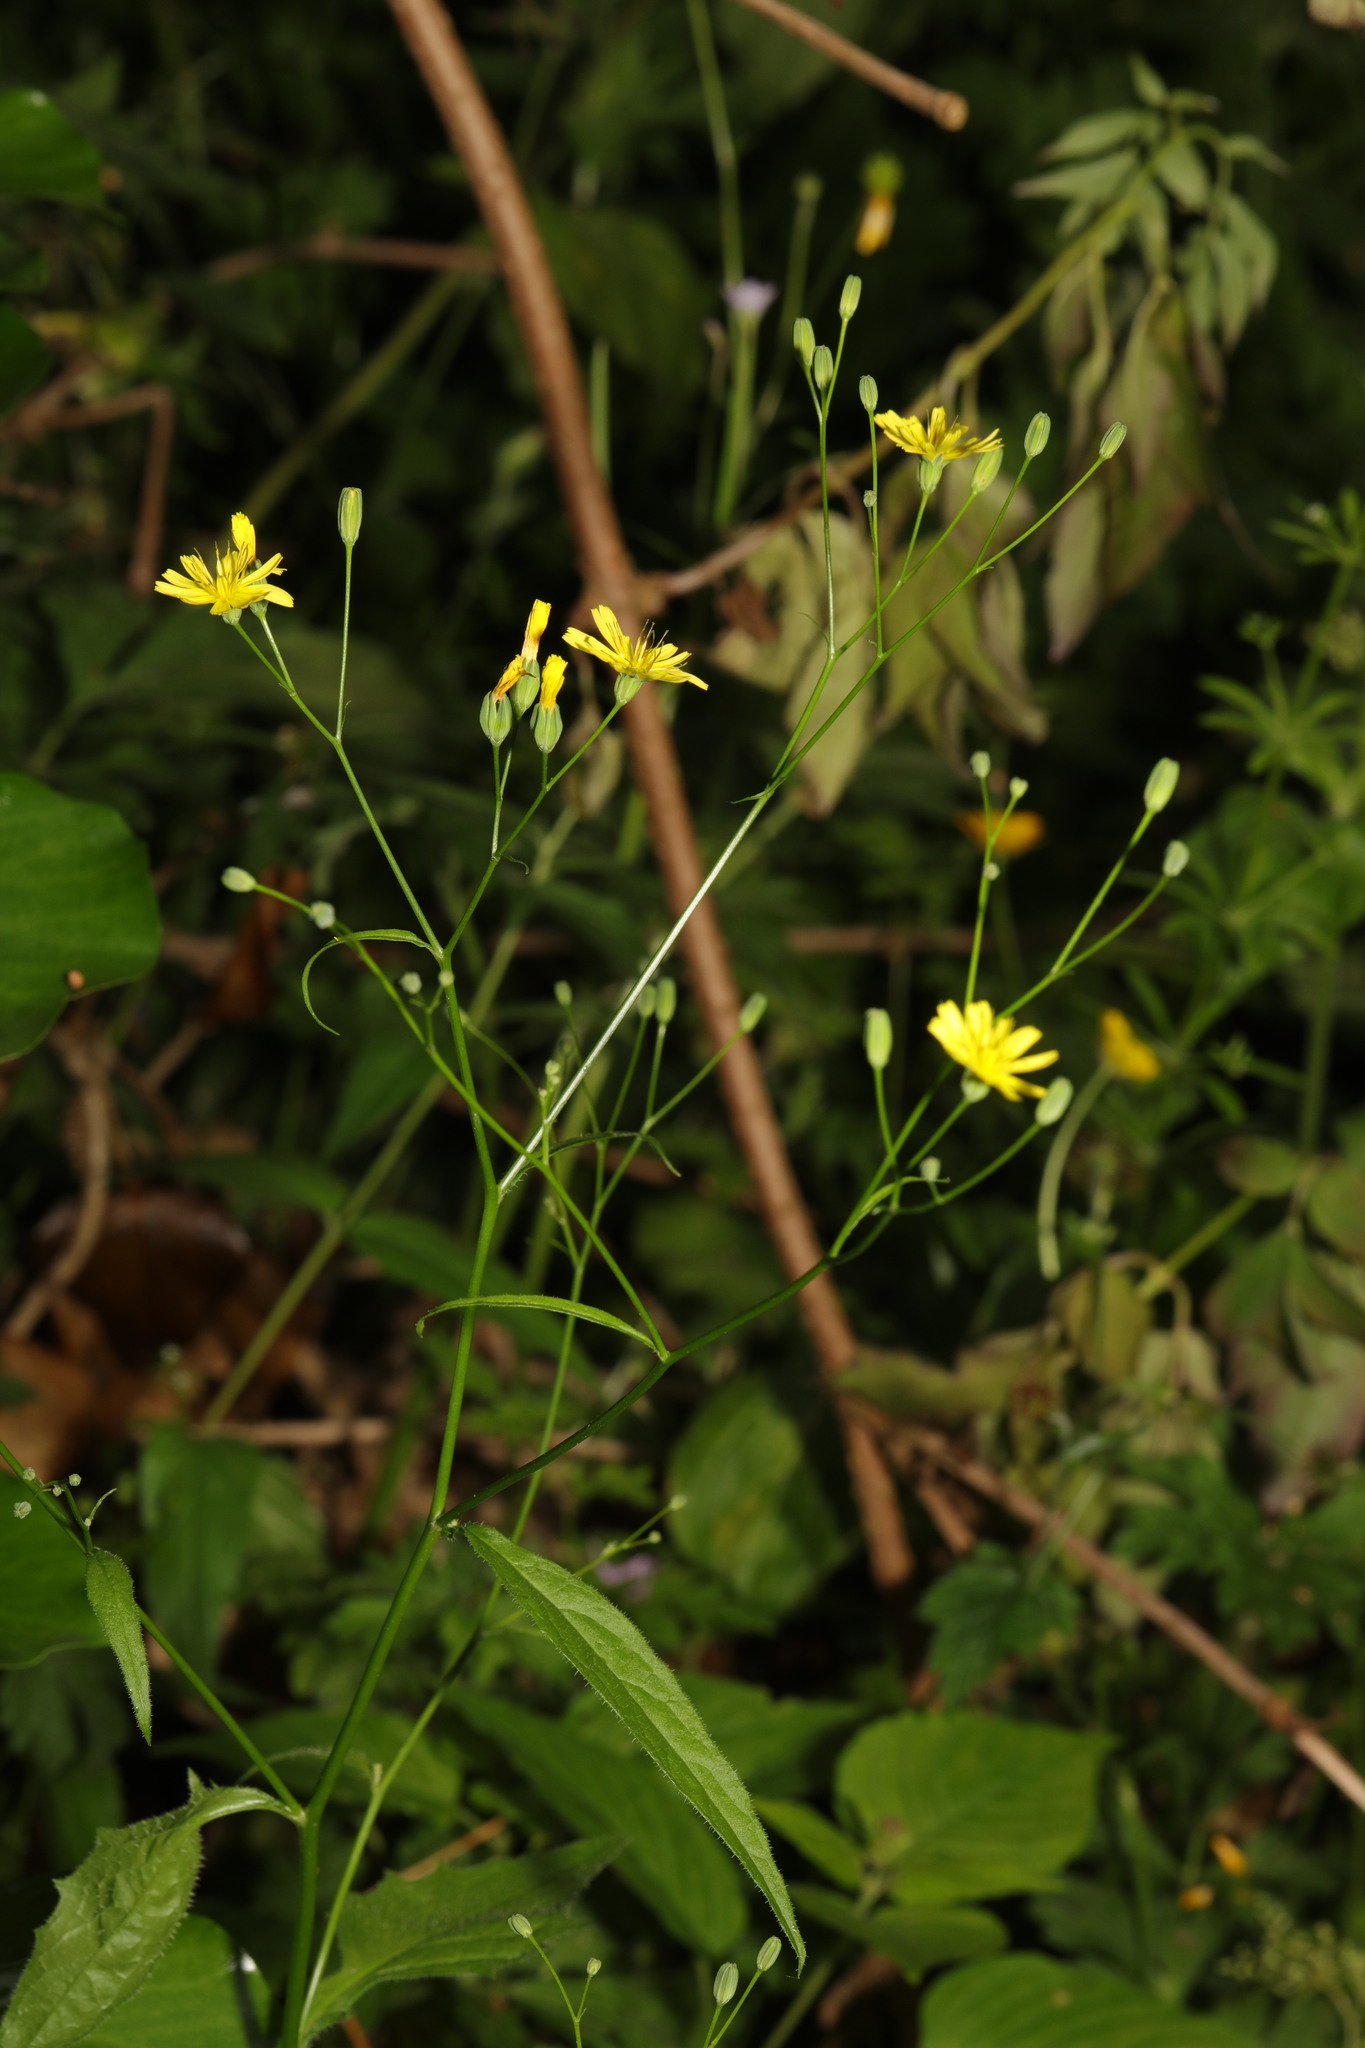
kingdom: Plantae
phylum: Tracheophyta
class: Magnoliopsida
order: Asterales
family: Asteraceae
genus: Lapsana
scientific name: Lapsana communis
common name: Nipplewort
